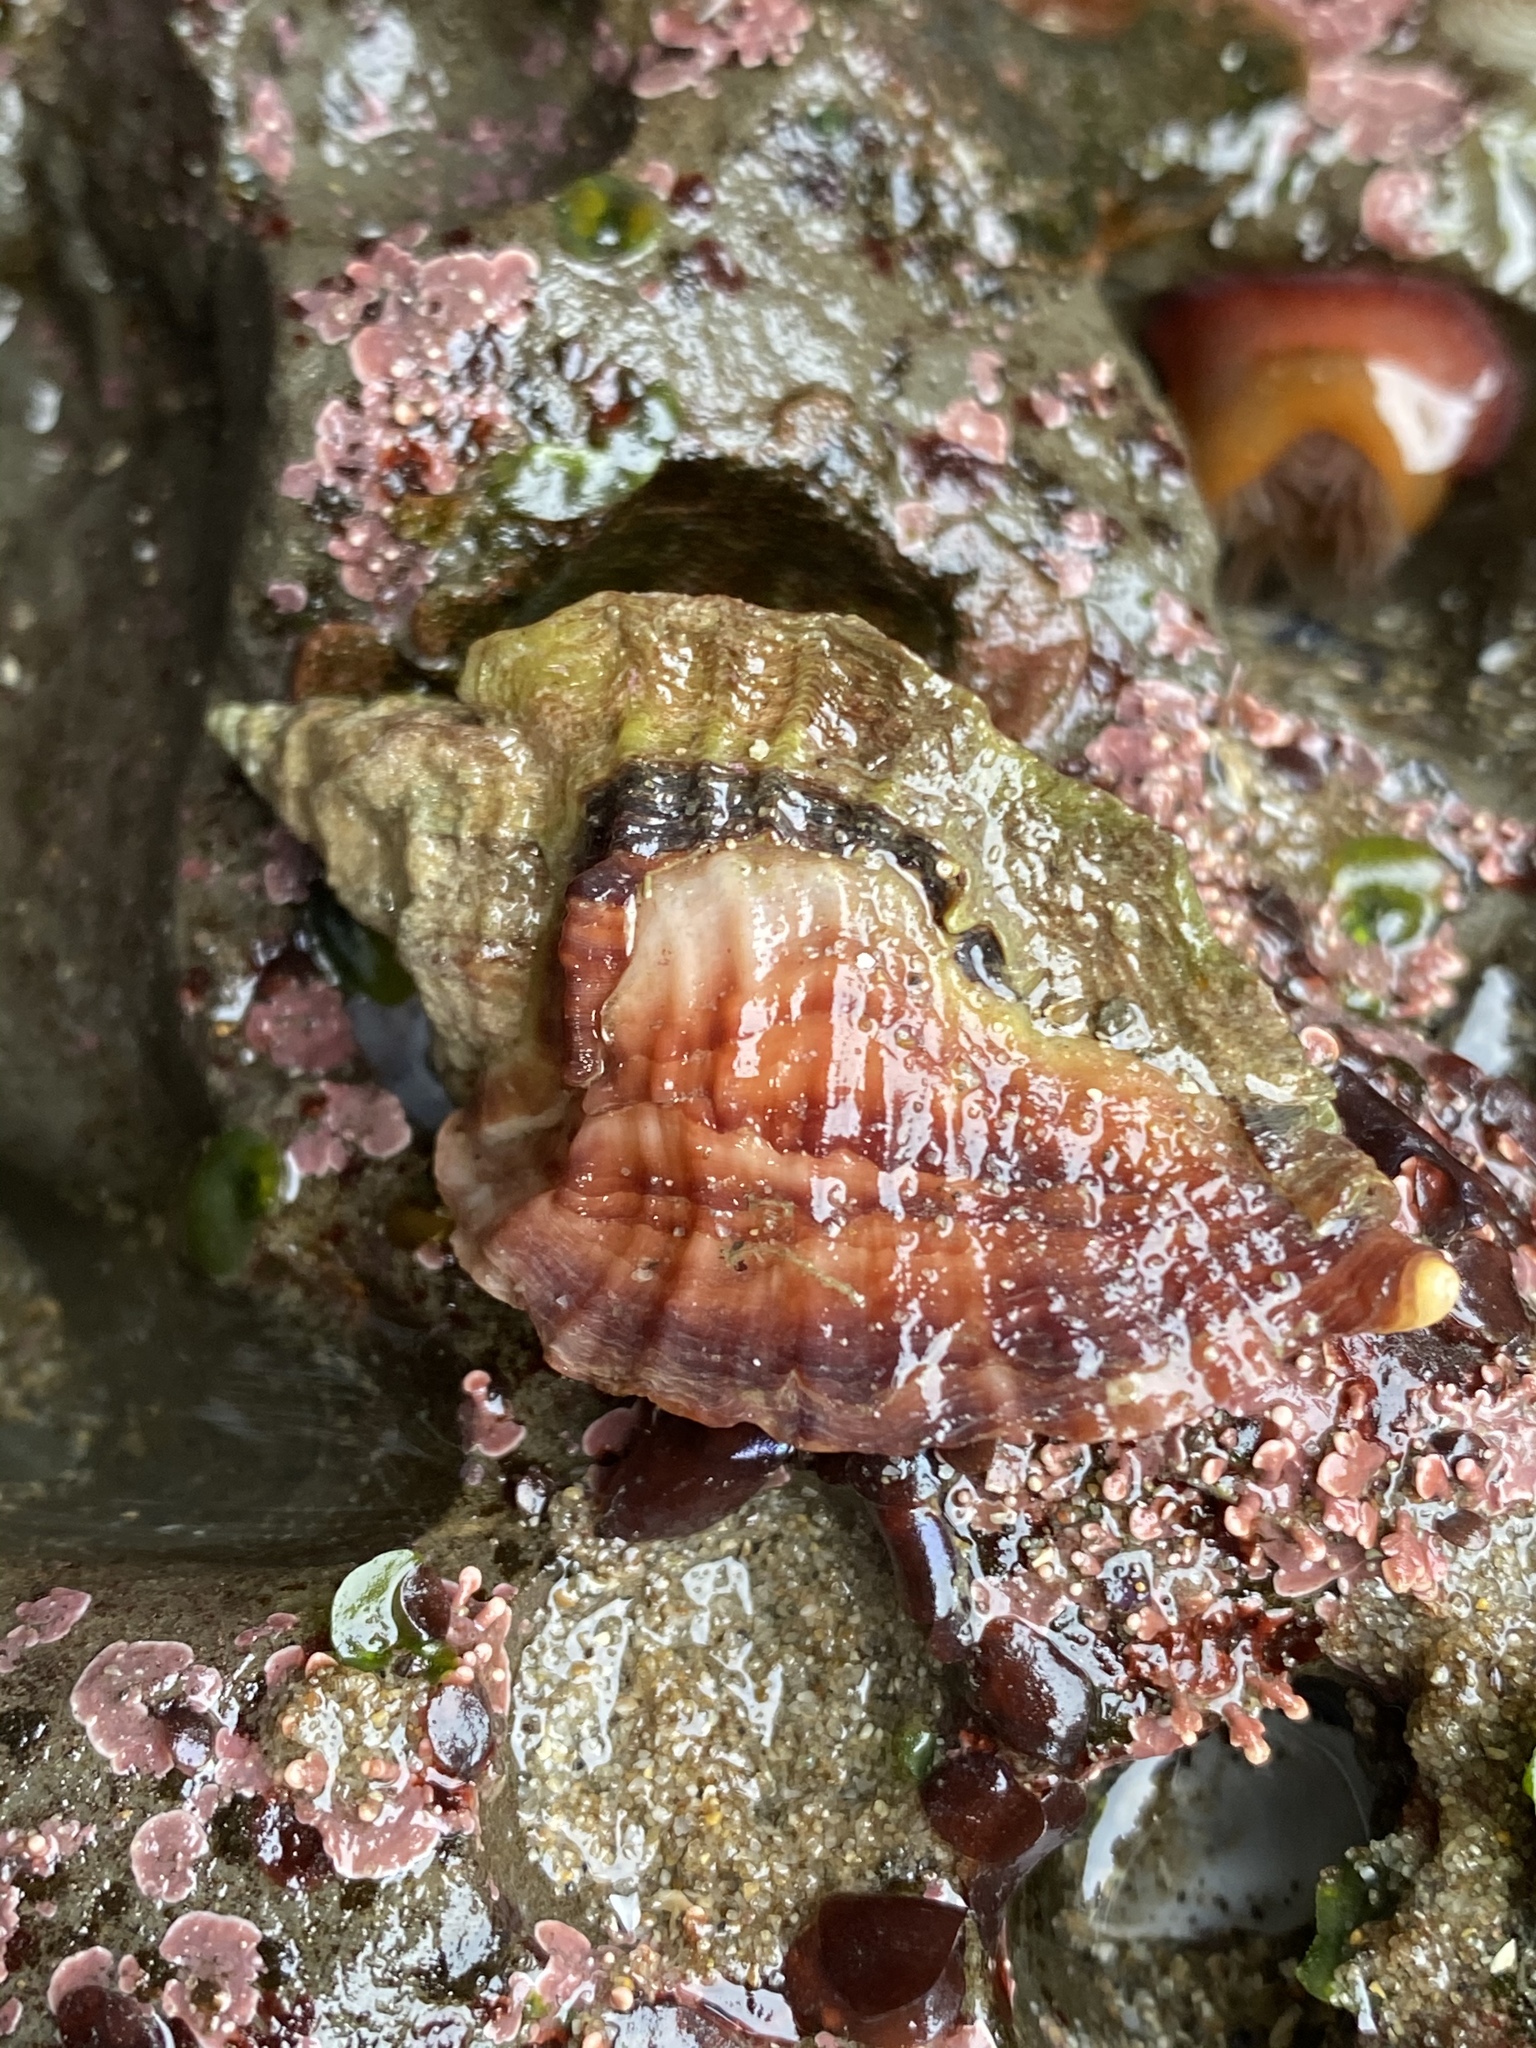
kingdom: Animalia
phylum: Mollusca
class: Gastropoda
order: Neogastropoda
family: Muricidae
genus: Ceratostoma
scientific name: Ceratostoma foliatum
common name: Foliate thorn purpura
